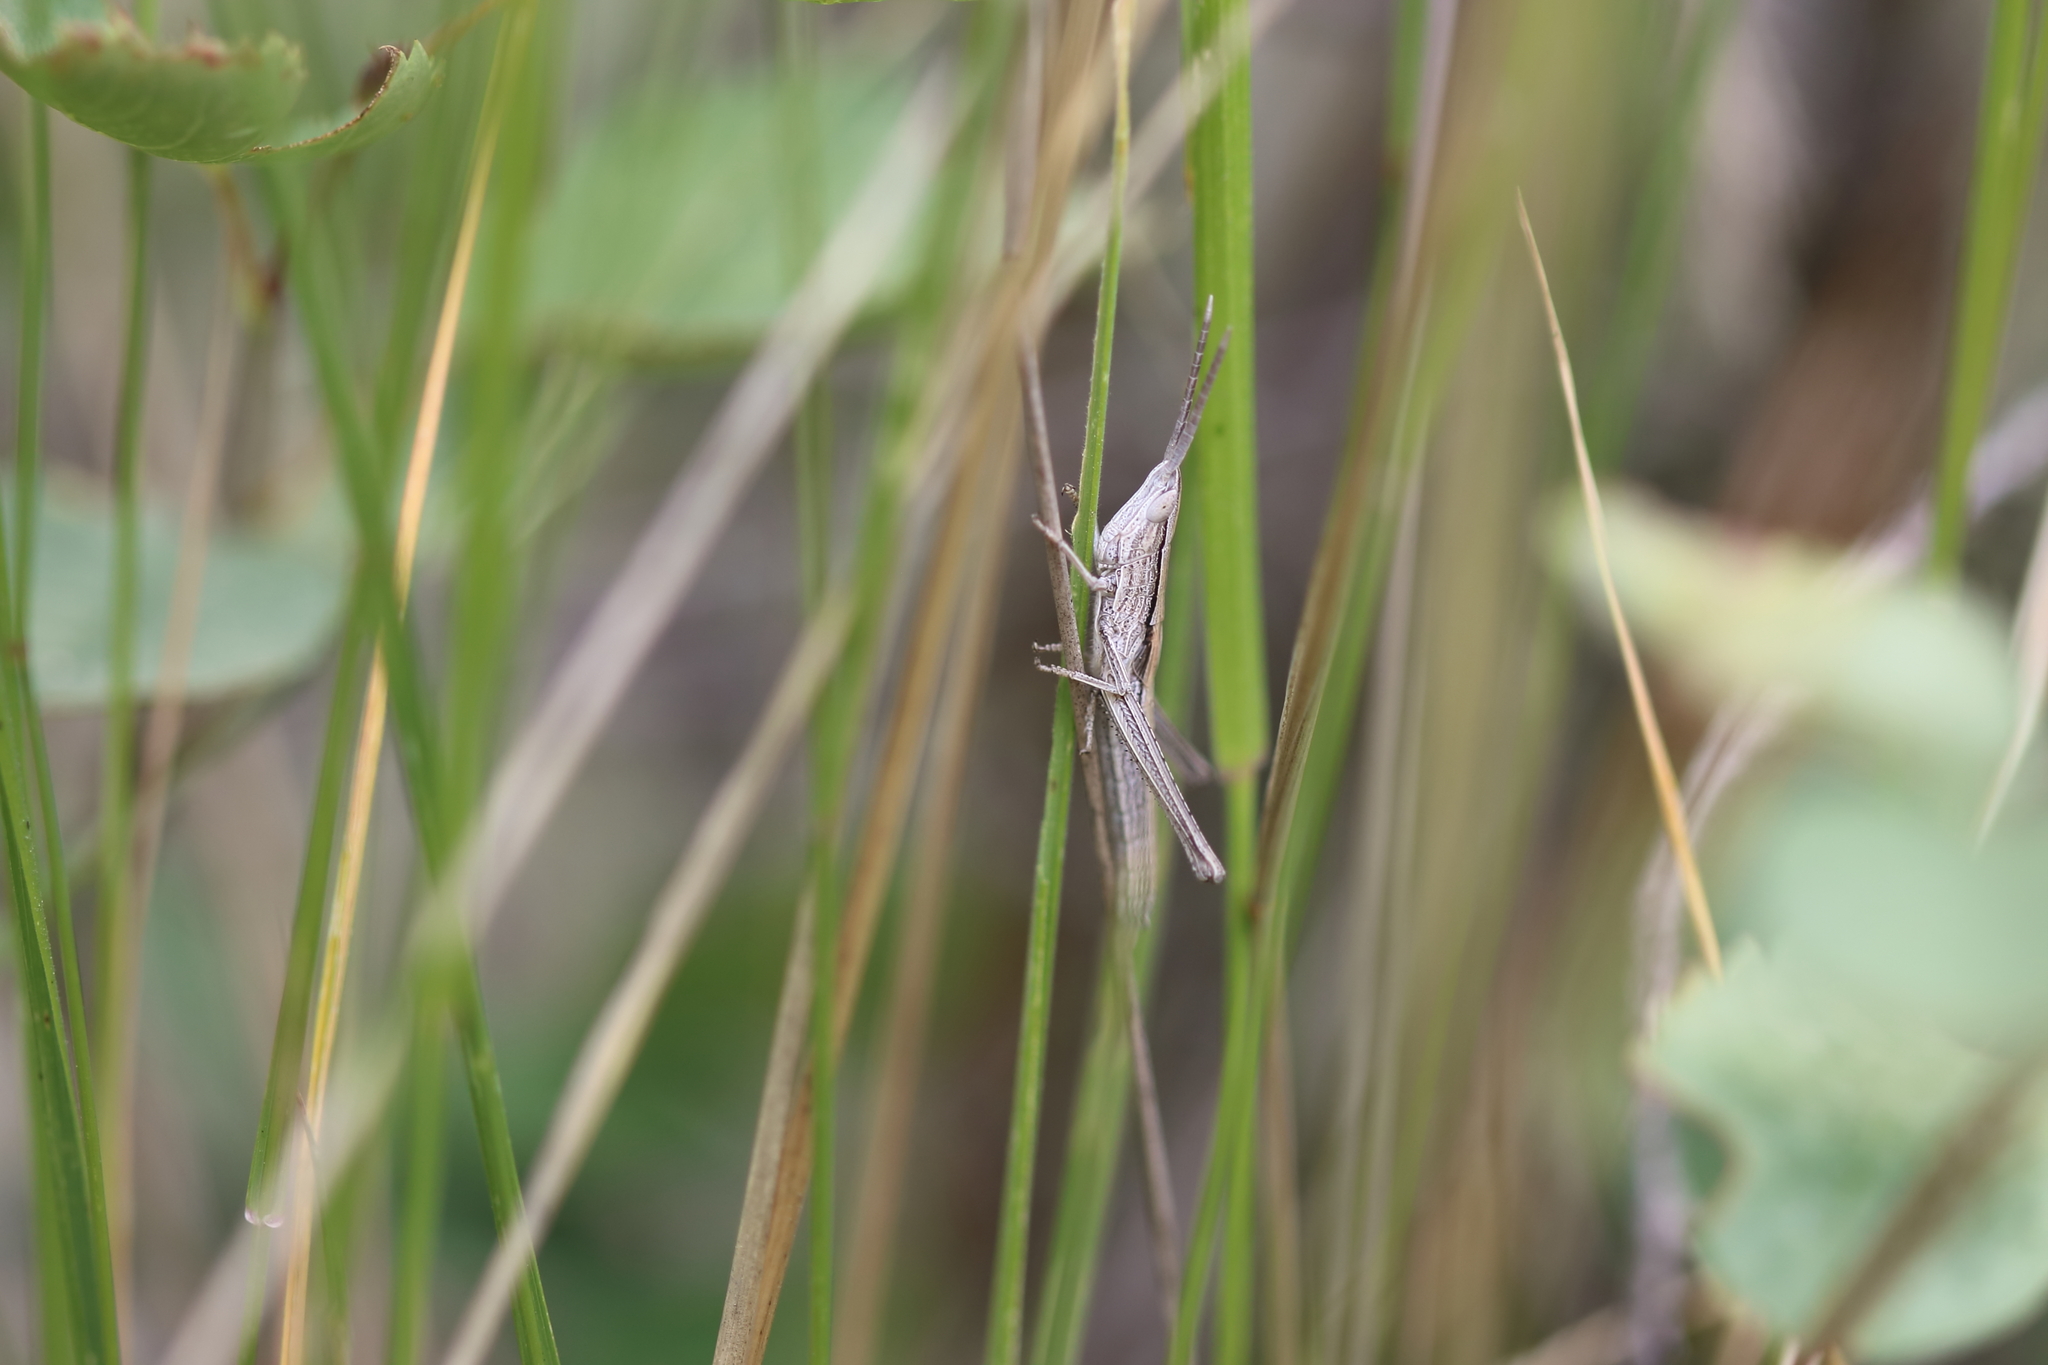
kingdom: Animalia
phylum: Arthropoda
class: Insecta
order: Orthoptera
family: Acrididae
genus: Pseudopomala
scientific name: Pseudopomala brachyptera
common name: Bunchgrass grasshopper
